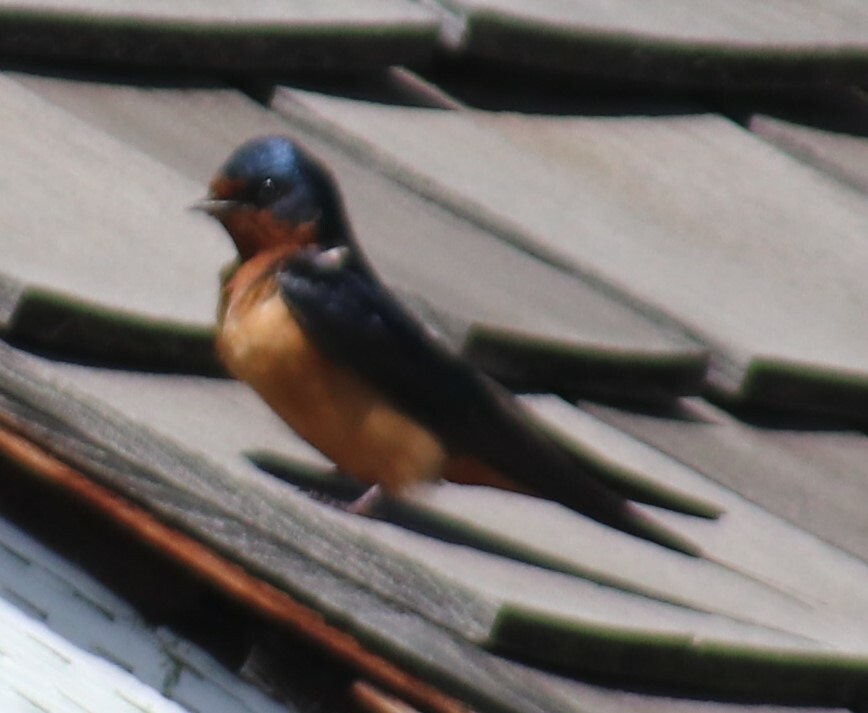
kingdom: Animalia
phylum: Chordata
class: Aves
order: Passeriformes
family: Hirundinidae
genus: Hirundo
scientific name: Hirundo rustica
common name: Barn swallow
